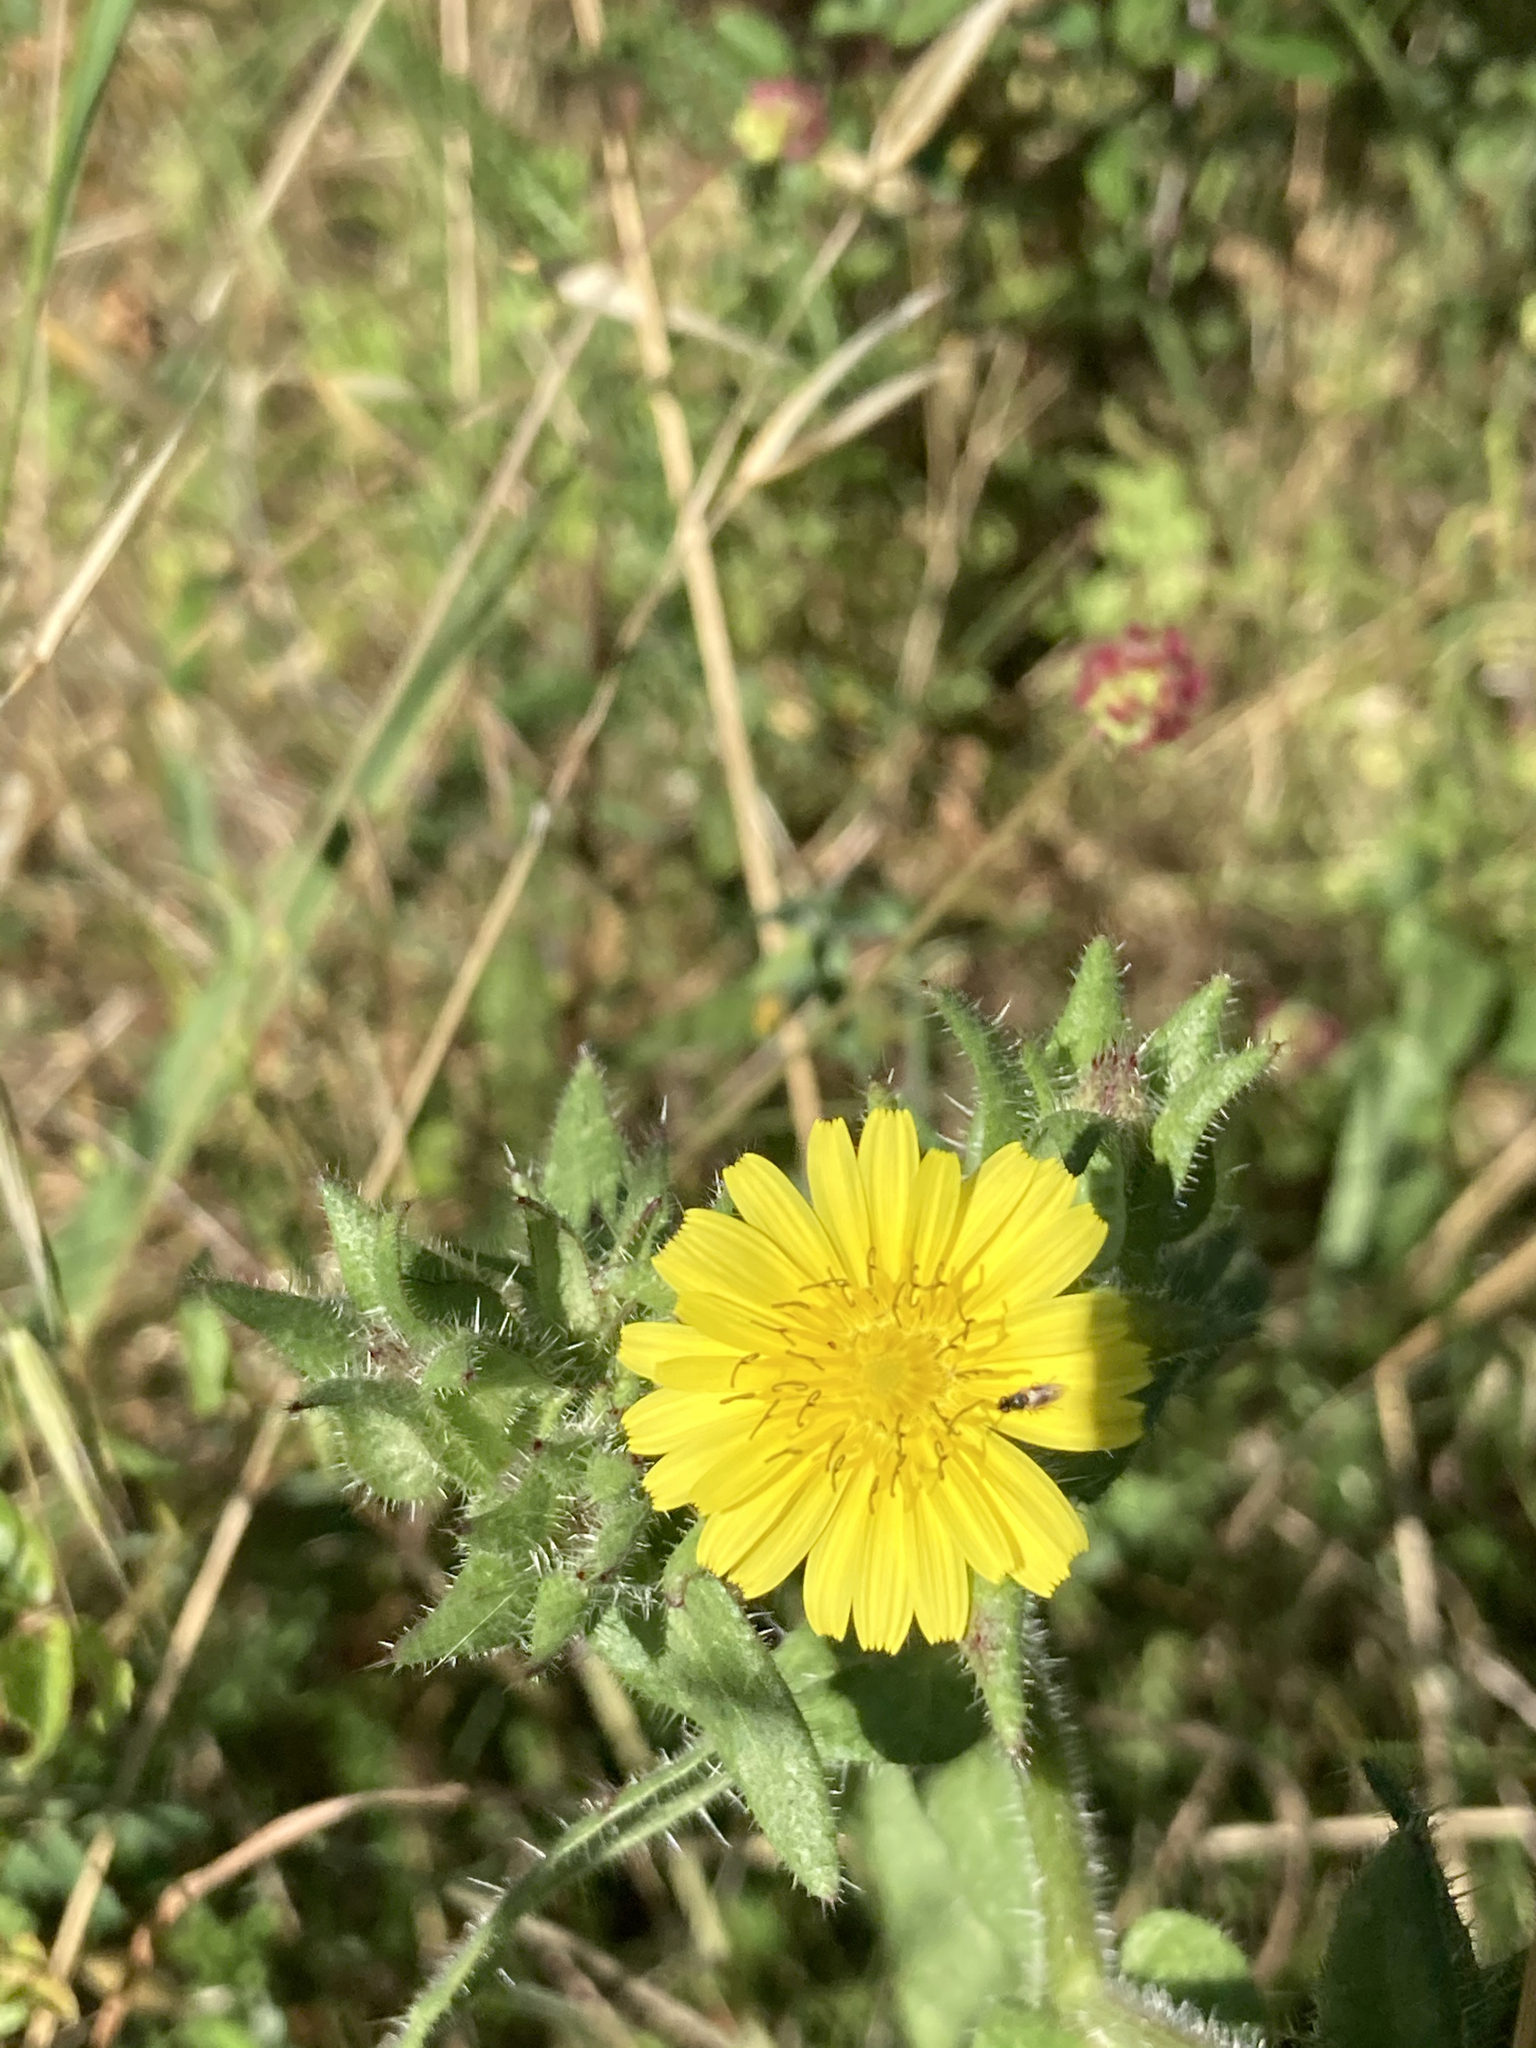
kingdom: Plantae
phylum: Tracheophyta
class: Magnoliopsida
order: Asterales
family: Asteraceae
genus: Helminthotheca
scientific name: Helminthotheca echioides
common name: Ox-tongue
